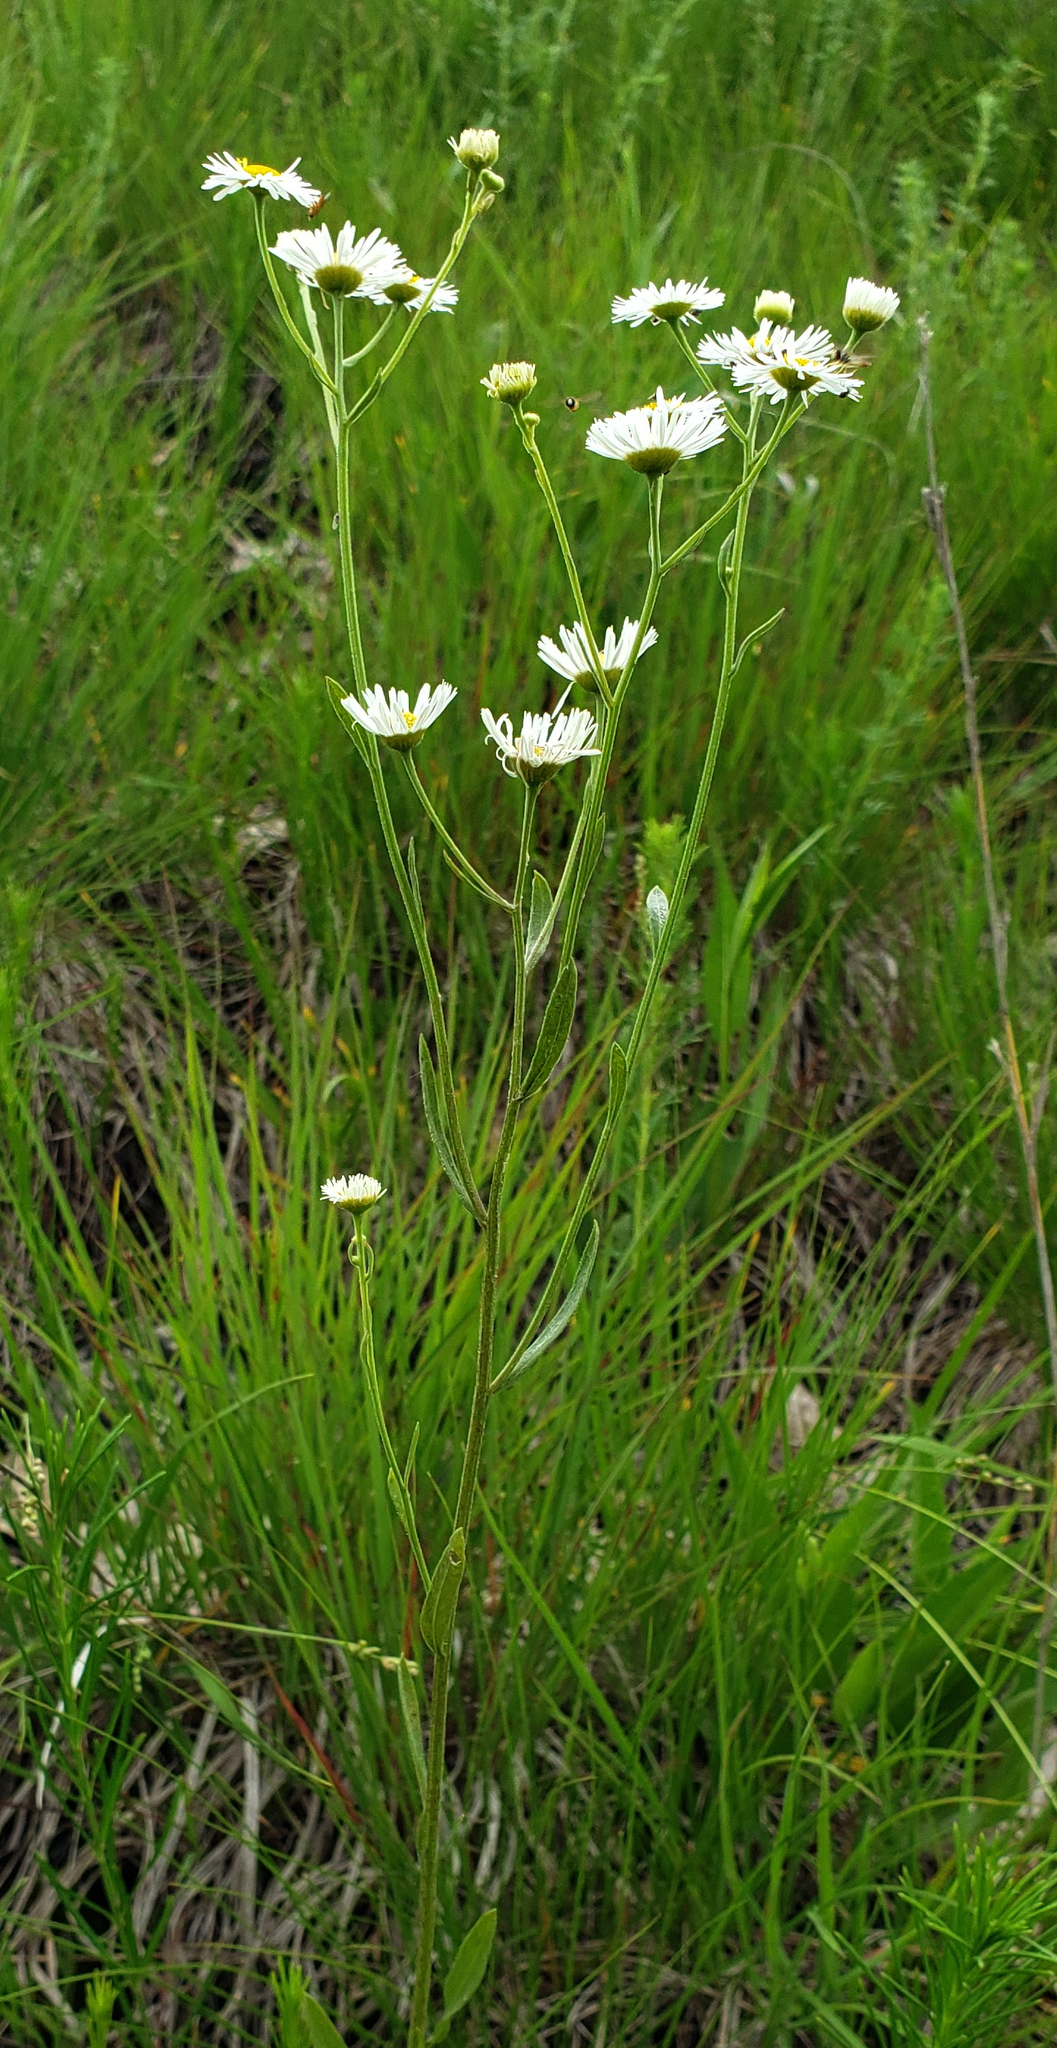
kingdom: Plantae
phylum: Tracheophyta
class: Magnoliopsida
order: Asterales
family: Asteraceae
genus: Erigeron
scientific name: Erigeron strigosus
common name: Common eastern fleabane
